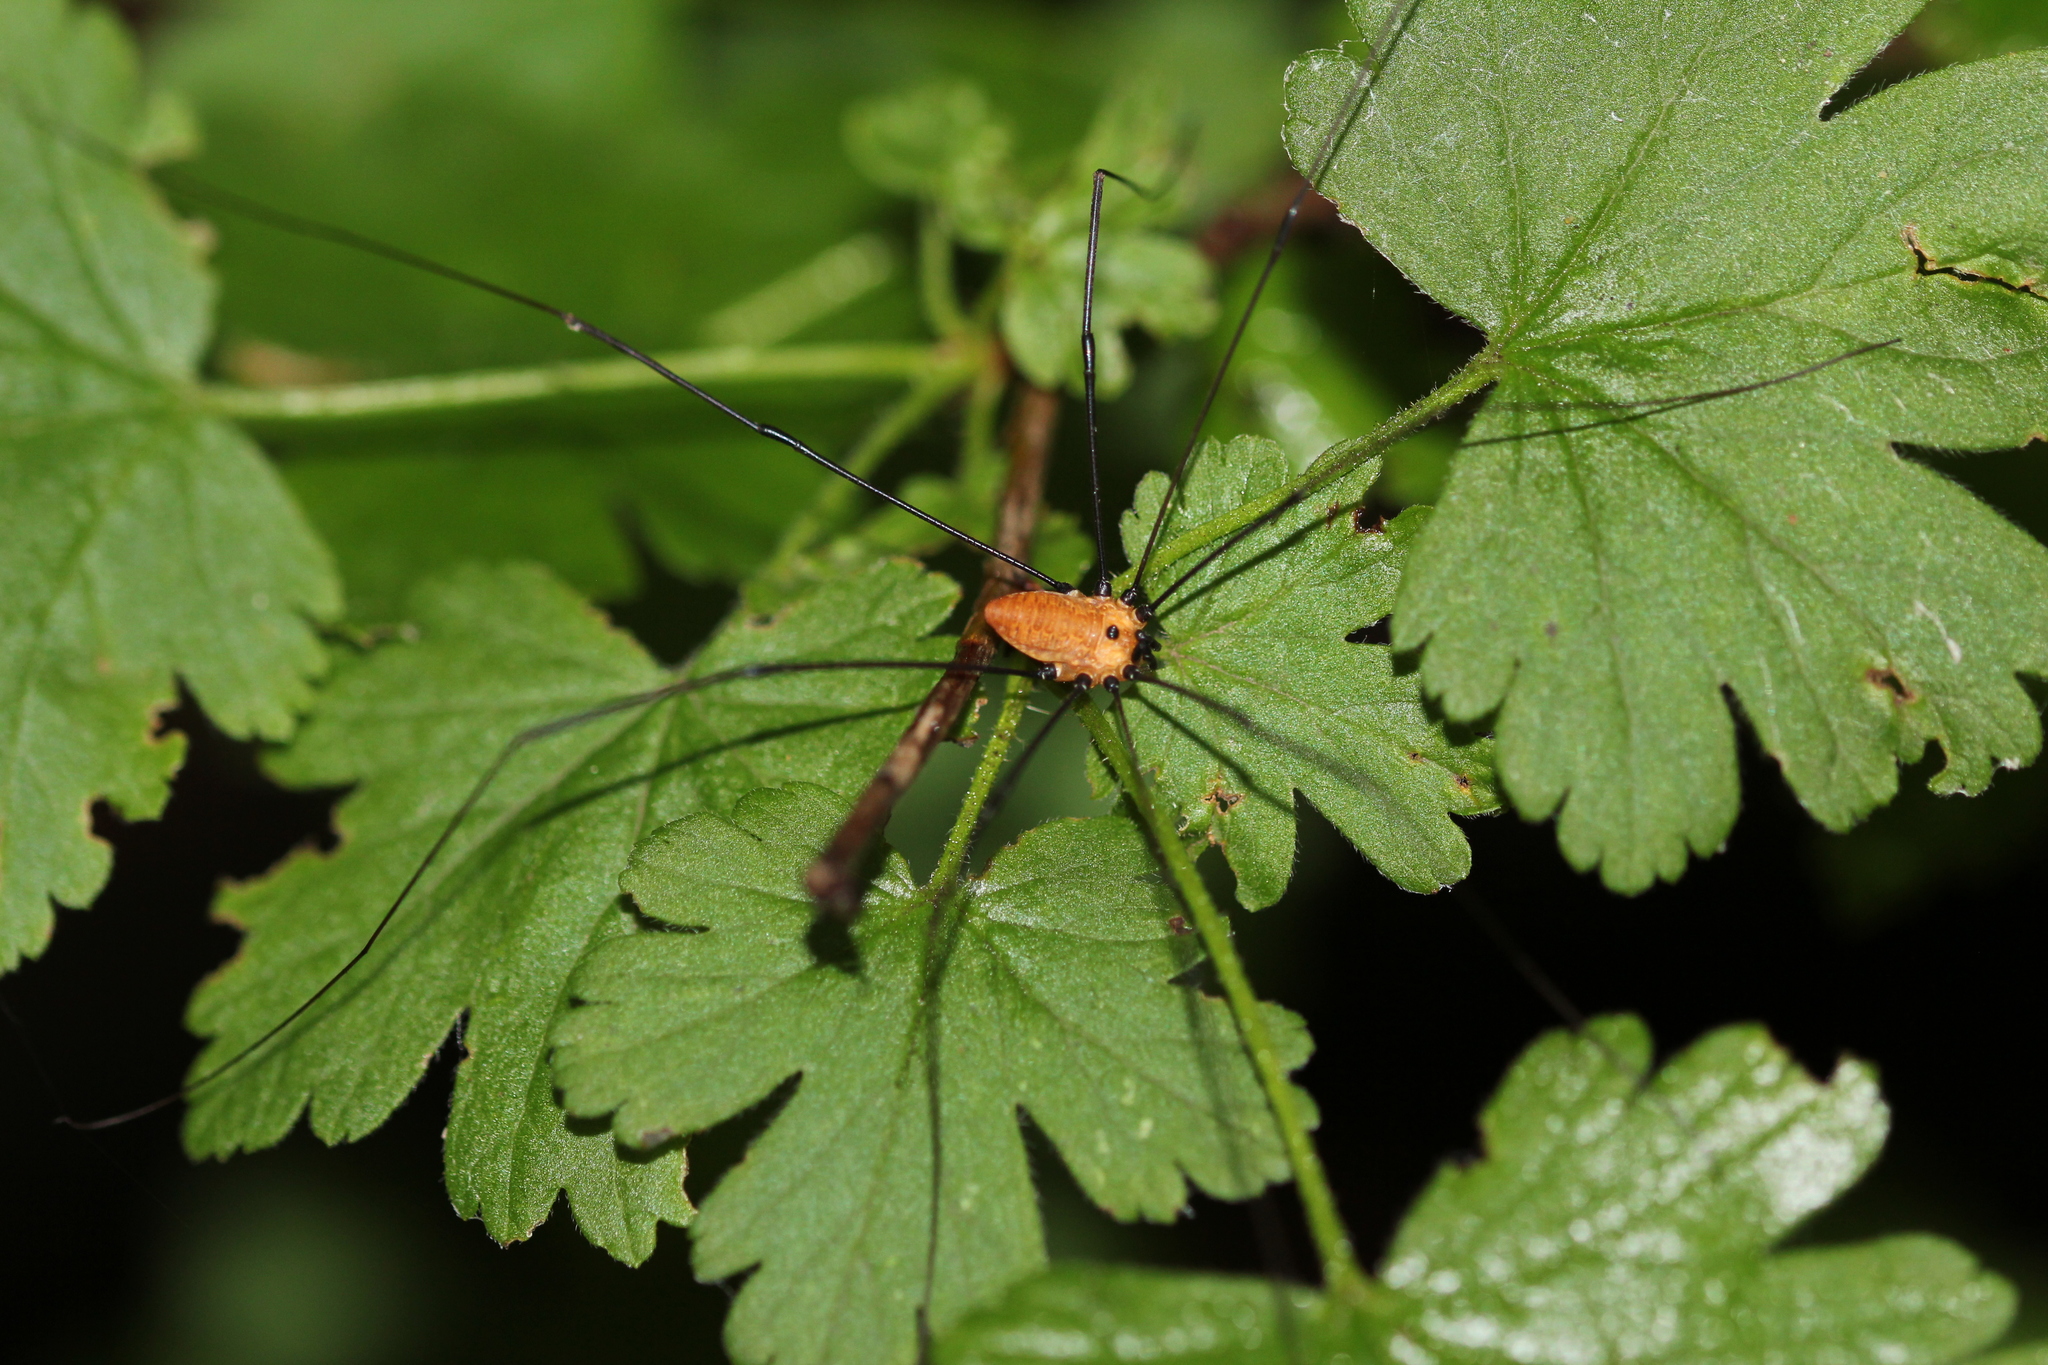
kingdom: Animalia
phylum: Arthropoda
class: Arachnida
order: Opiliones
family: Sclerosomatidae
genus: Leiobunum
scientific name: Leiobunum nigropalpi
